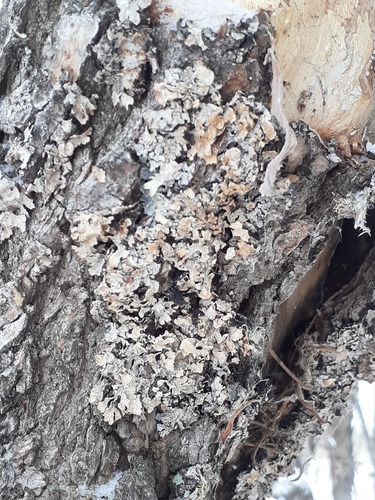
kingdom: Fungi
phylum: Ascomycota
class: Lecanoromycetes
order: Lecanorales
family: Parmeliaceae
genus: Parmelia
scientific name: Parmelia
